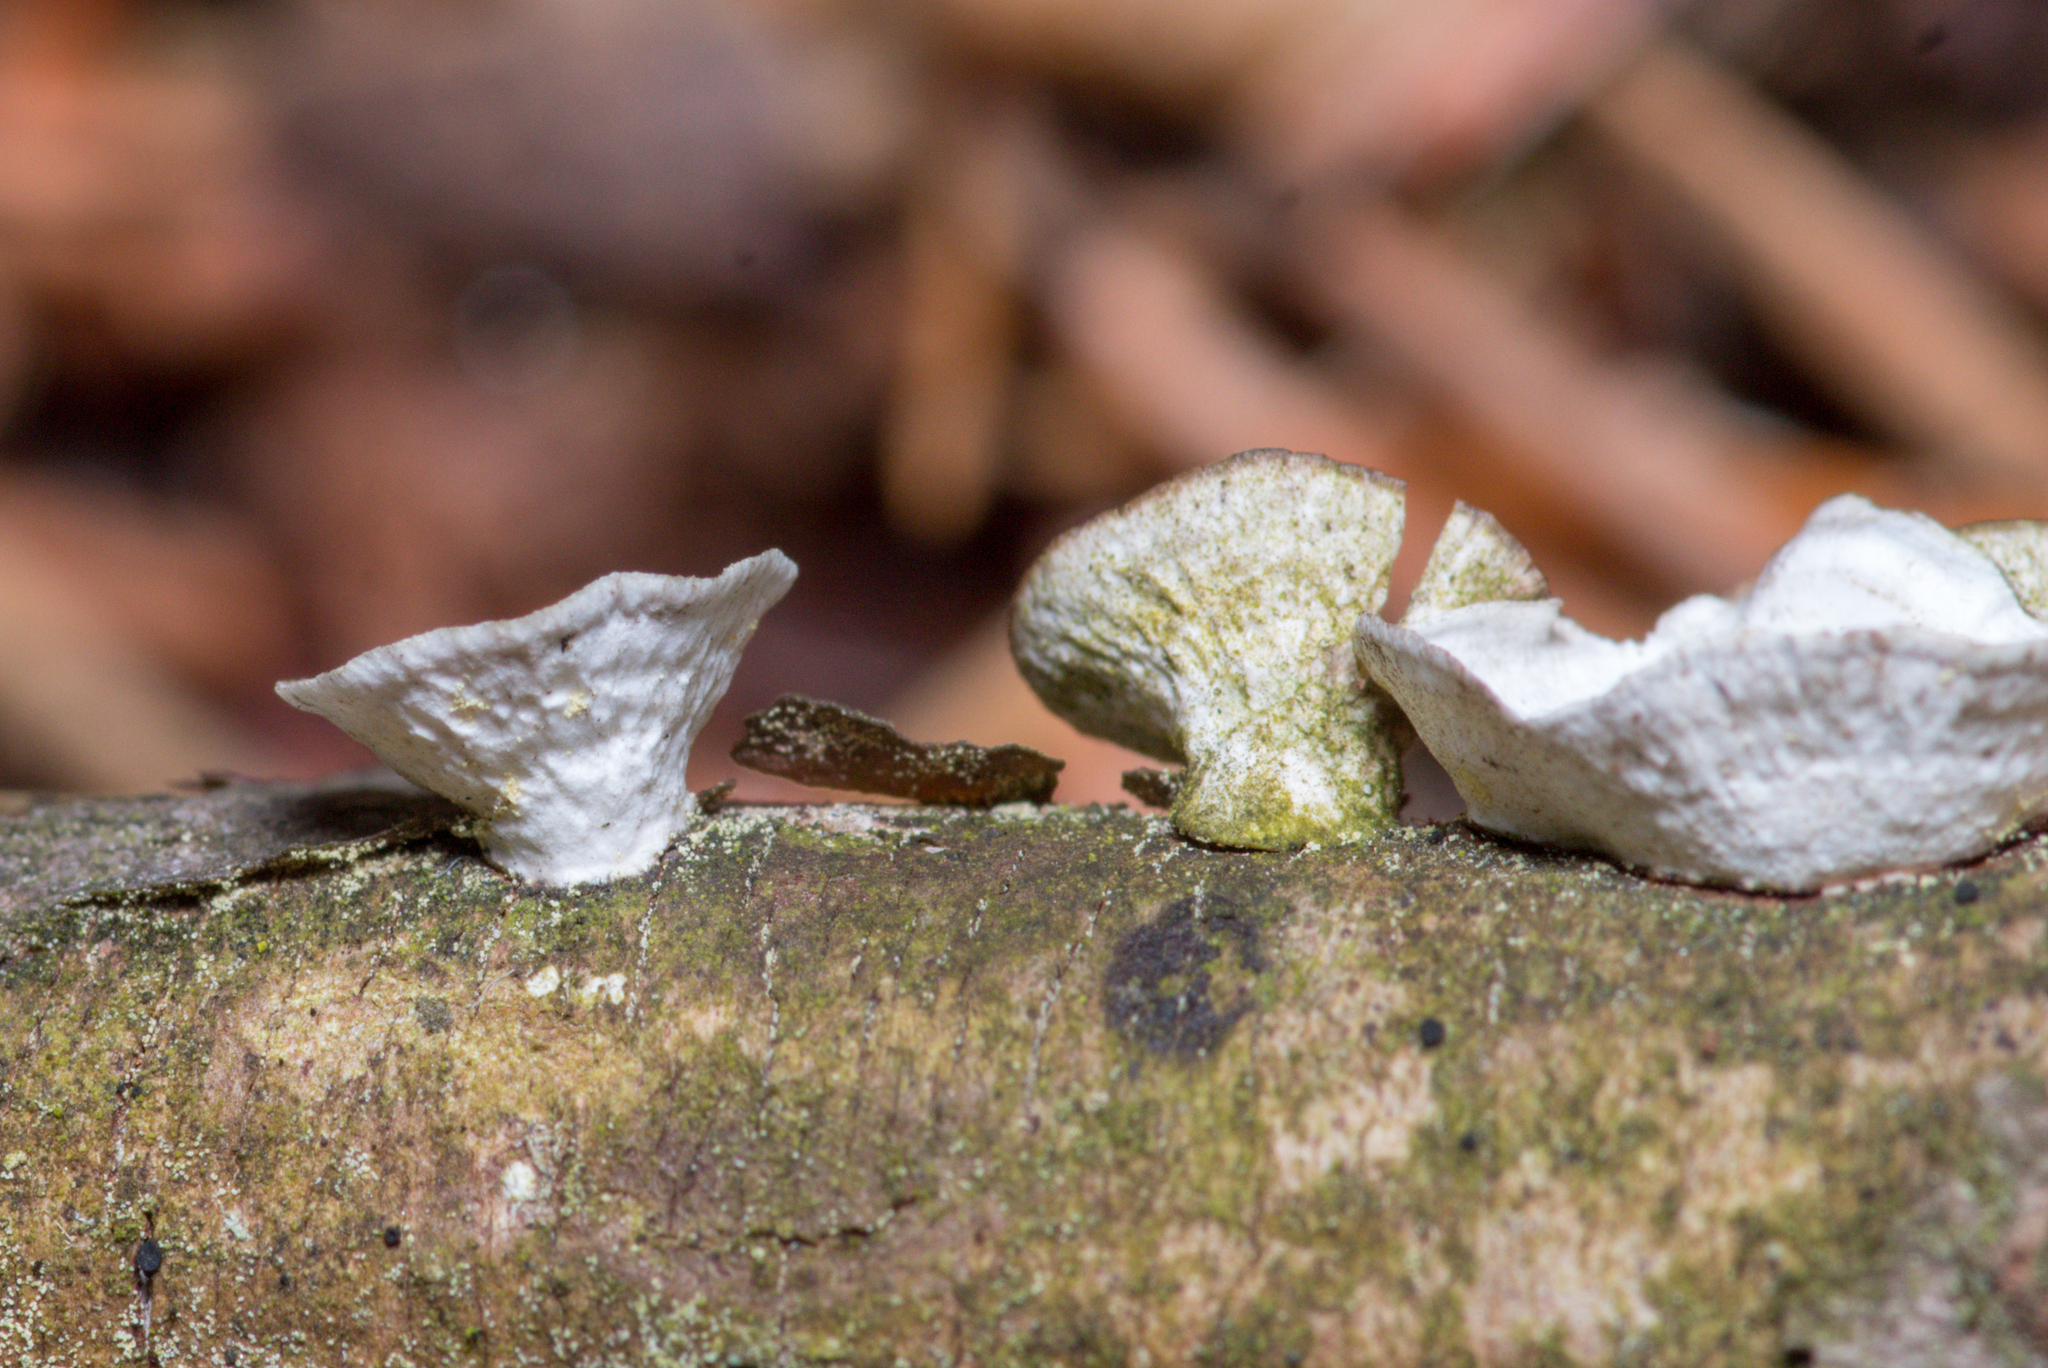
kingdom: Fungi
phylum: Basidiomycota
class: Agaricomycetes
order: Polyporales
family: Polyporaceae
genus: Poronidulus
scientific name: Poronidulus conchifer
